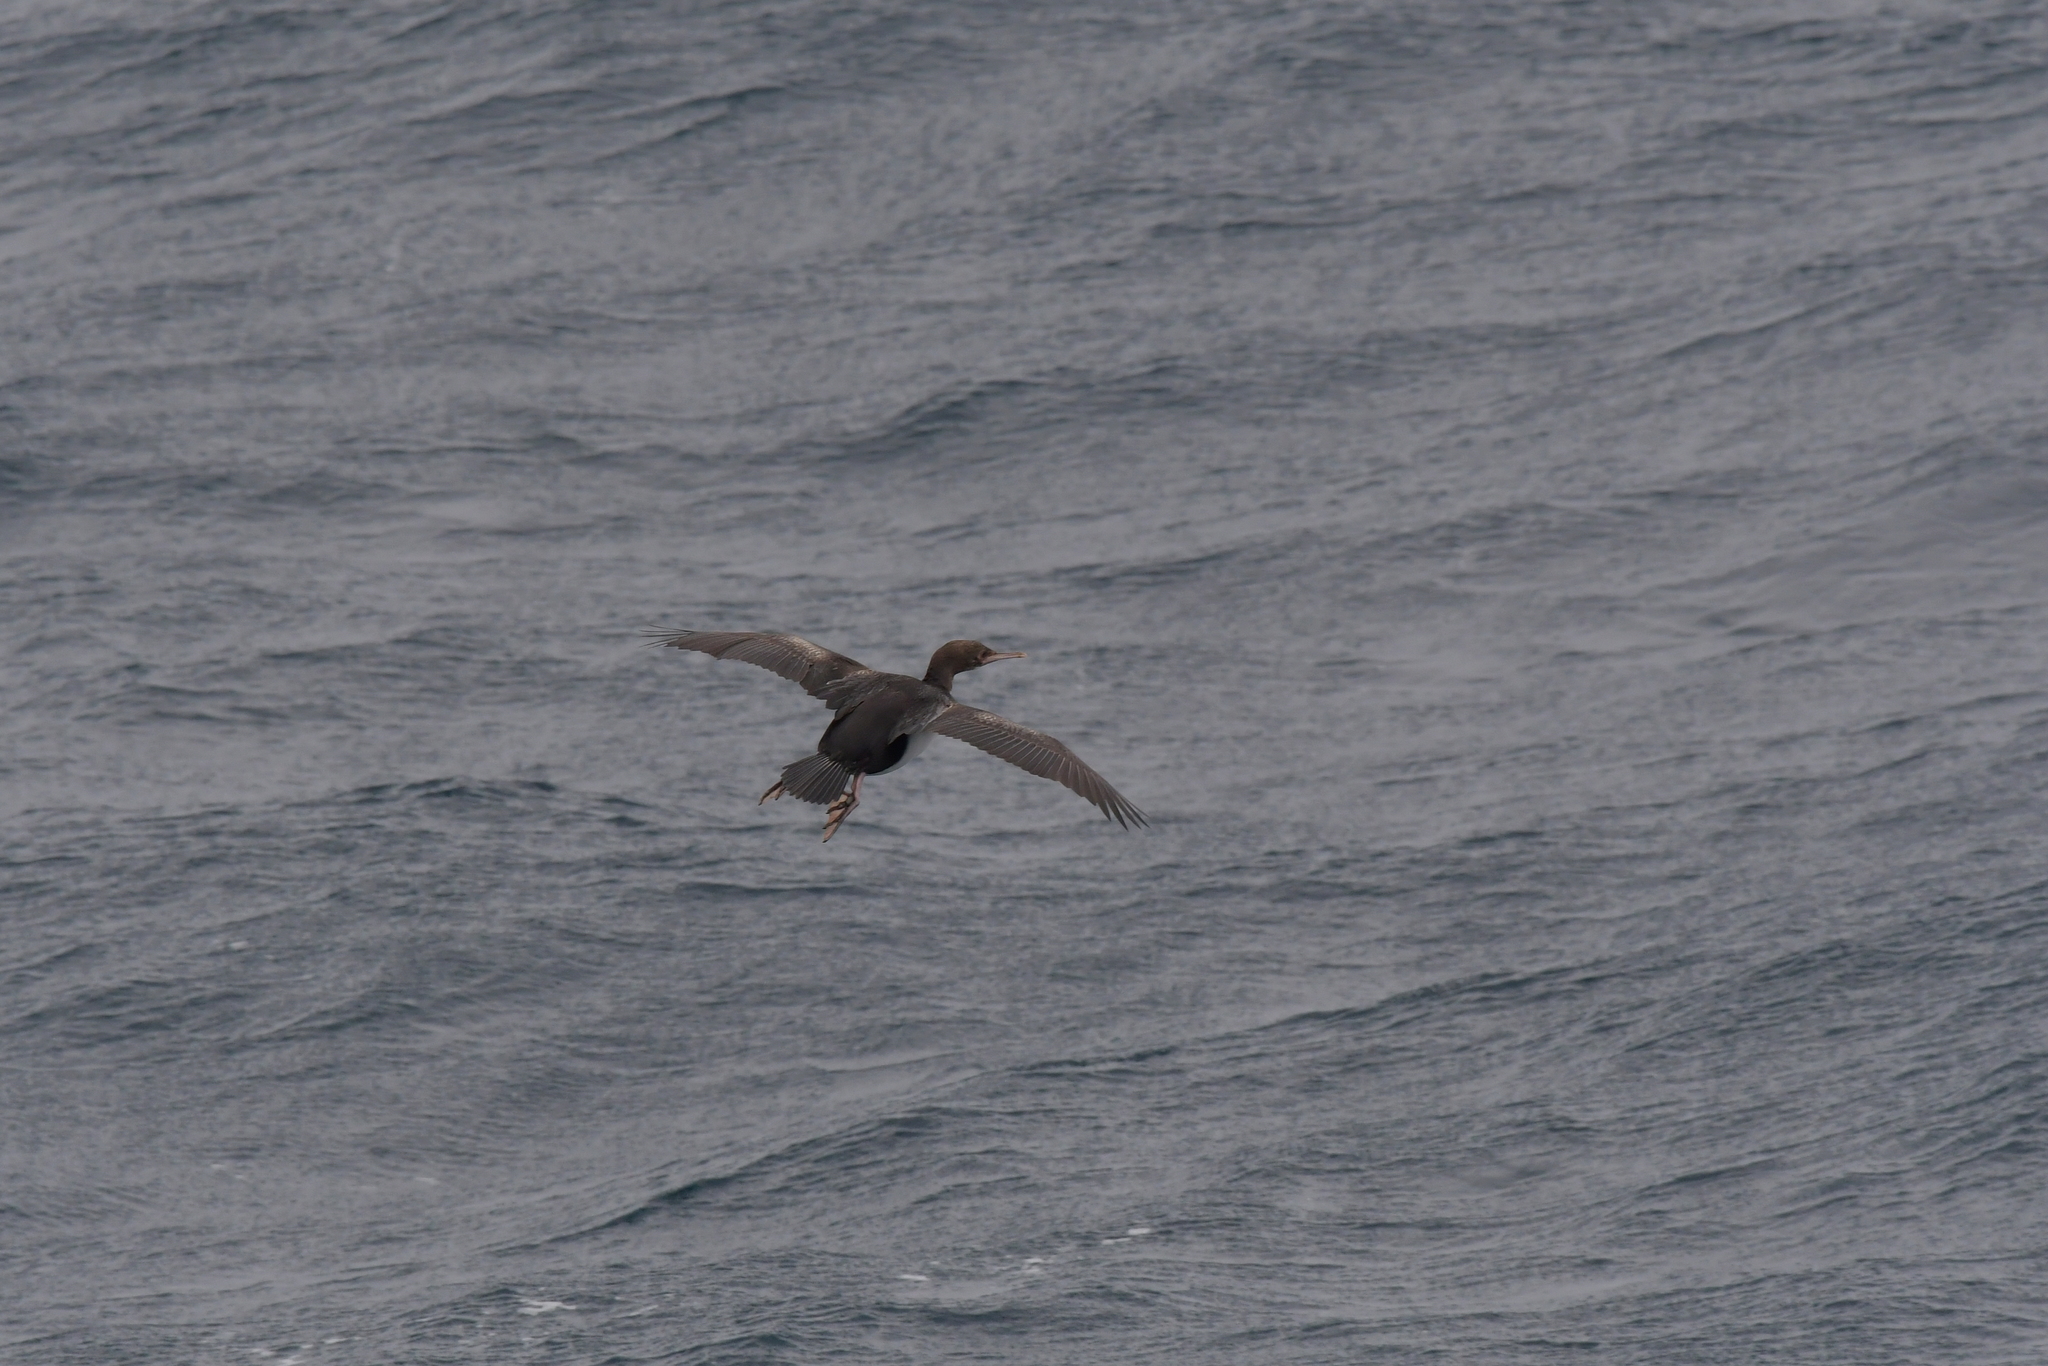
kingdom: Animalia
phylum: Chordata
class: Aves
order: Suliformes
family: Phalacrocoracidae
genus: Leucocarbo
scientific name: Leucocarbo ranfurlyi
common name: Bounty shag
